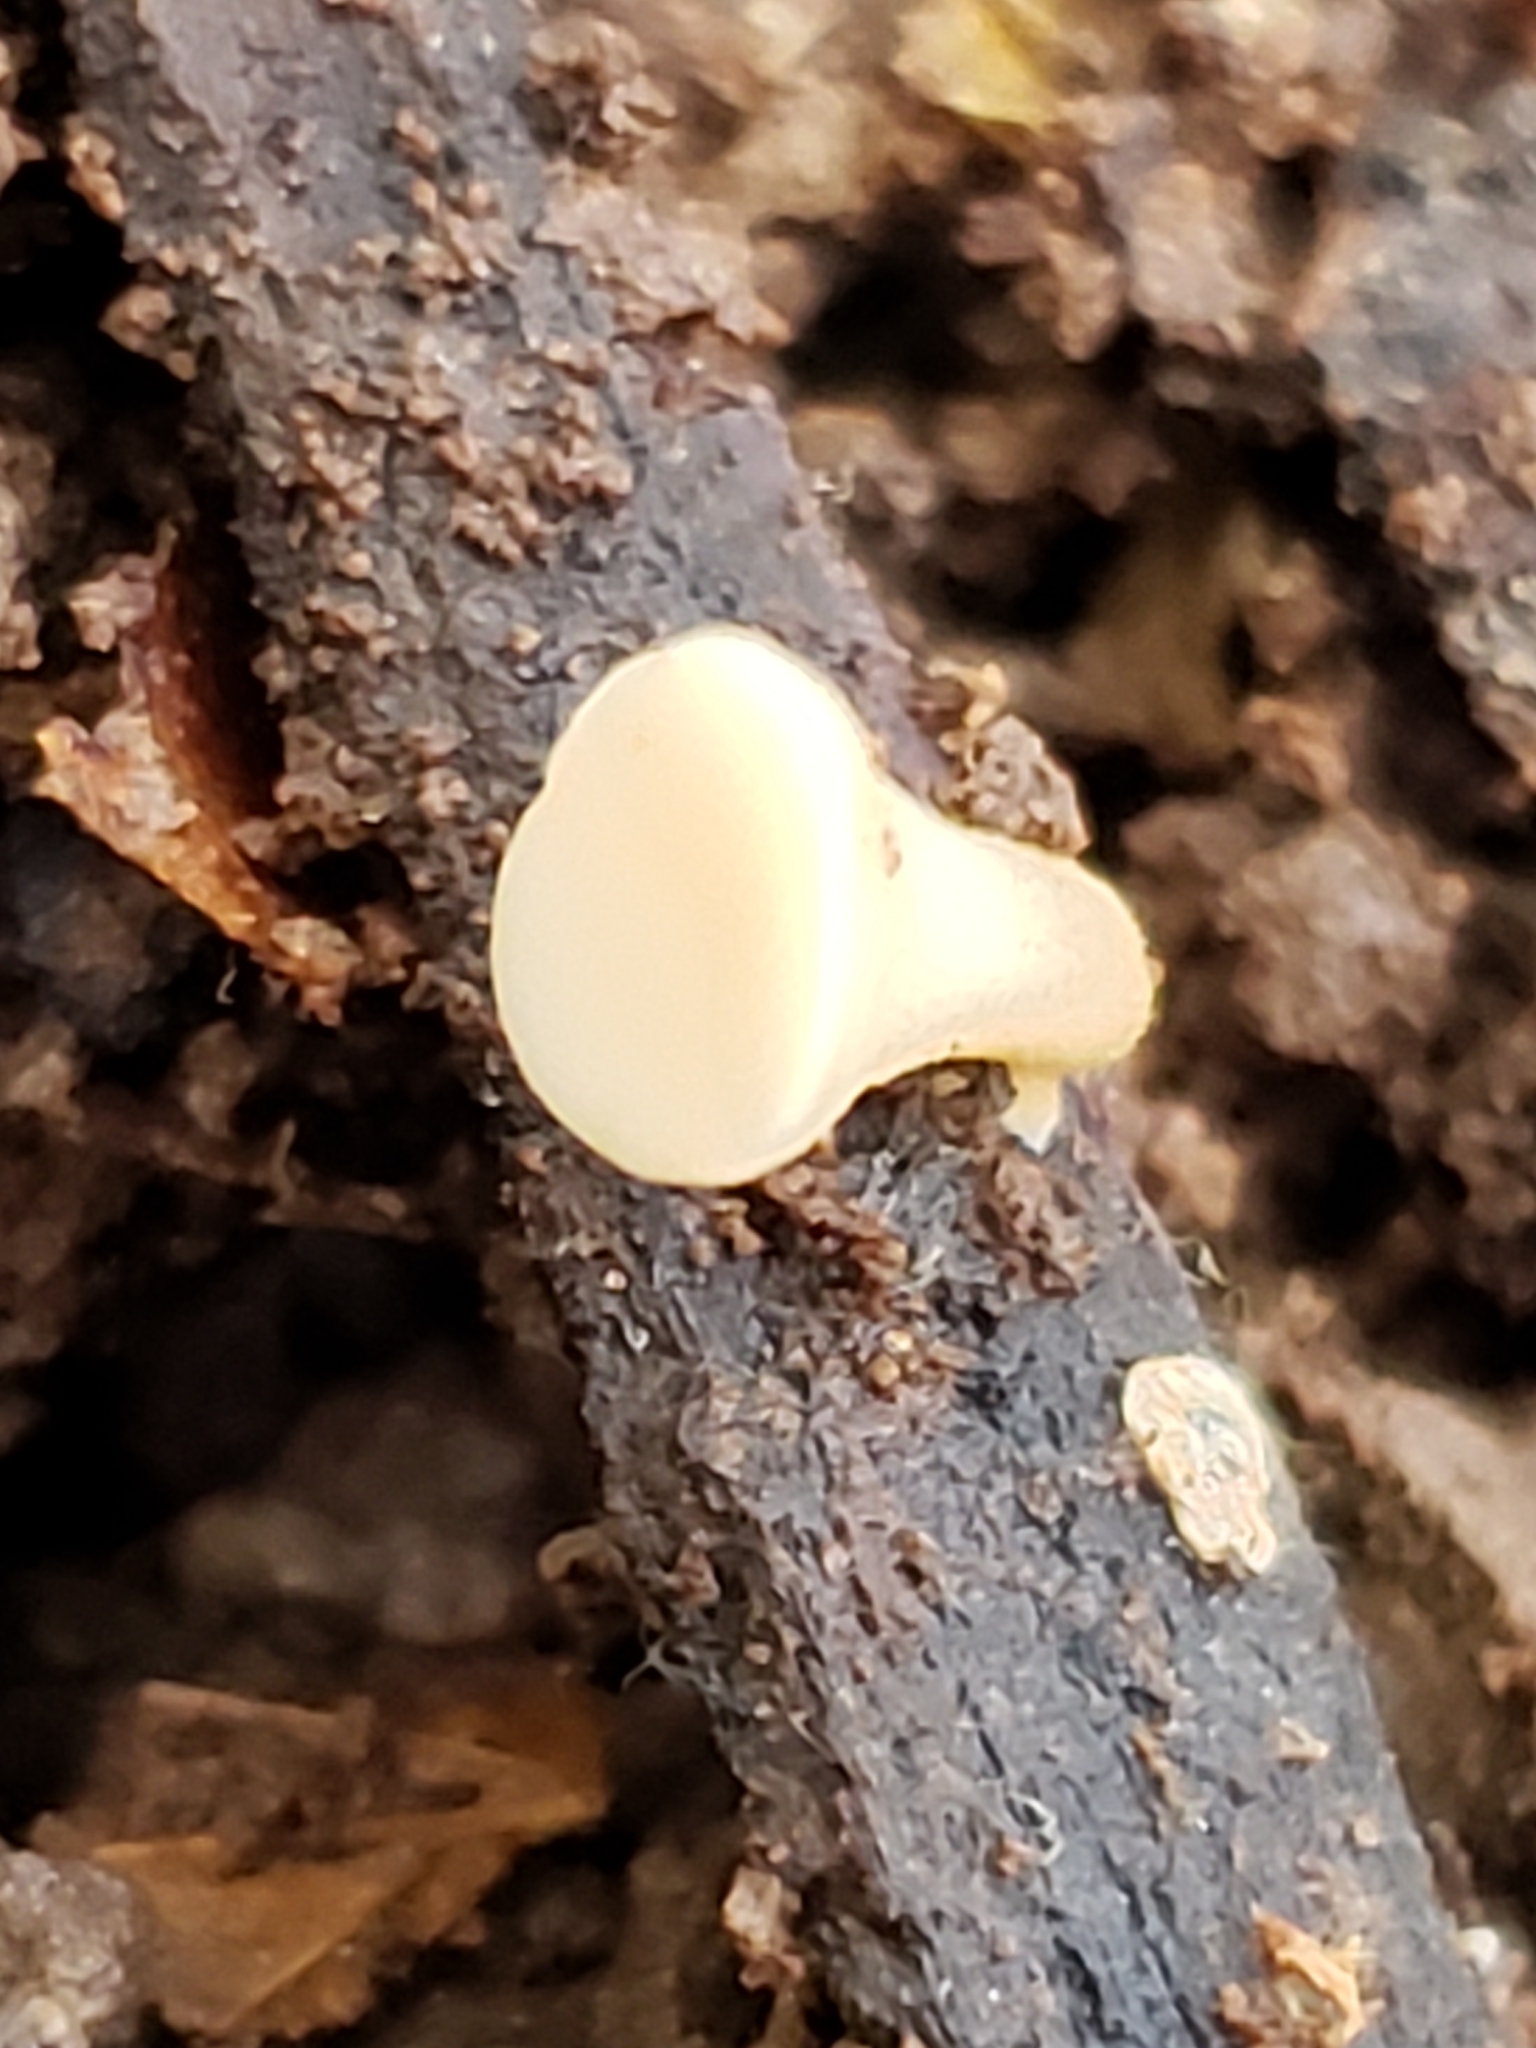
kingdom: Fungi
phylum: Ascomycota
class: Leotiomycetes
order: Helotiales
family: Helotiaceae
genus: Tatraea
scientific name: Tatraea macrospora
